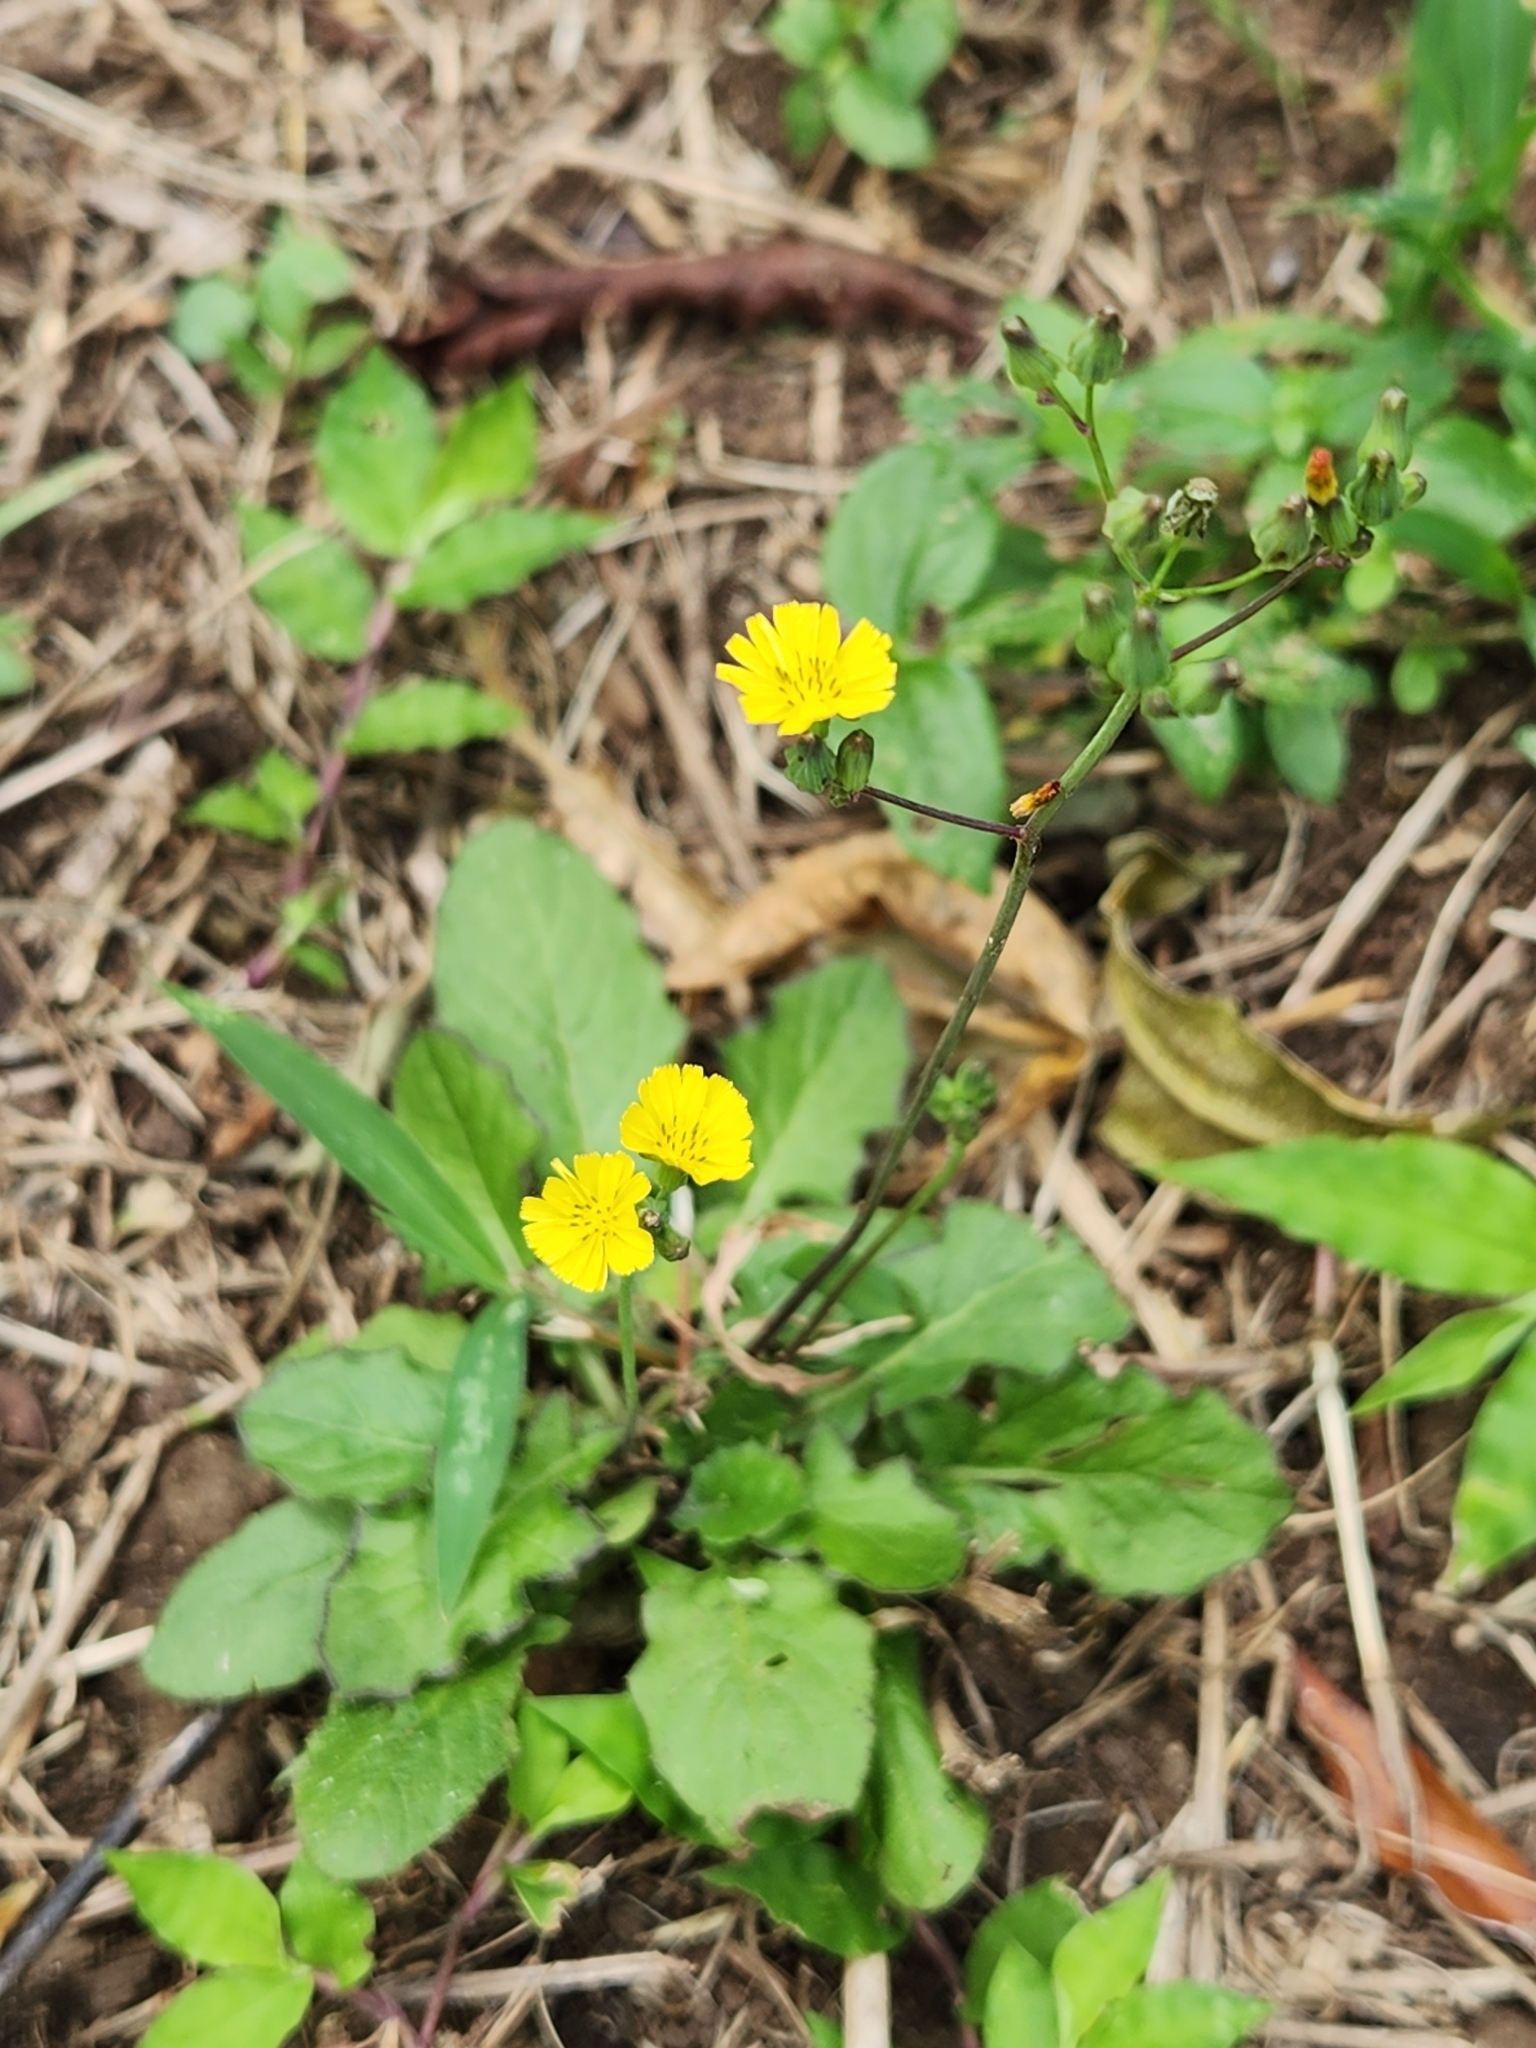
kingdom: Plantae
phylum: Tracheophyta
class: Magnoliopsida
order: Asterales
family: Asteraceae
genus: Youngia
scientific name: Youngia japonica
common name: Oriental false hawksbeard
